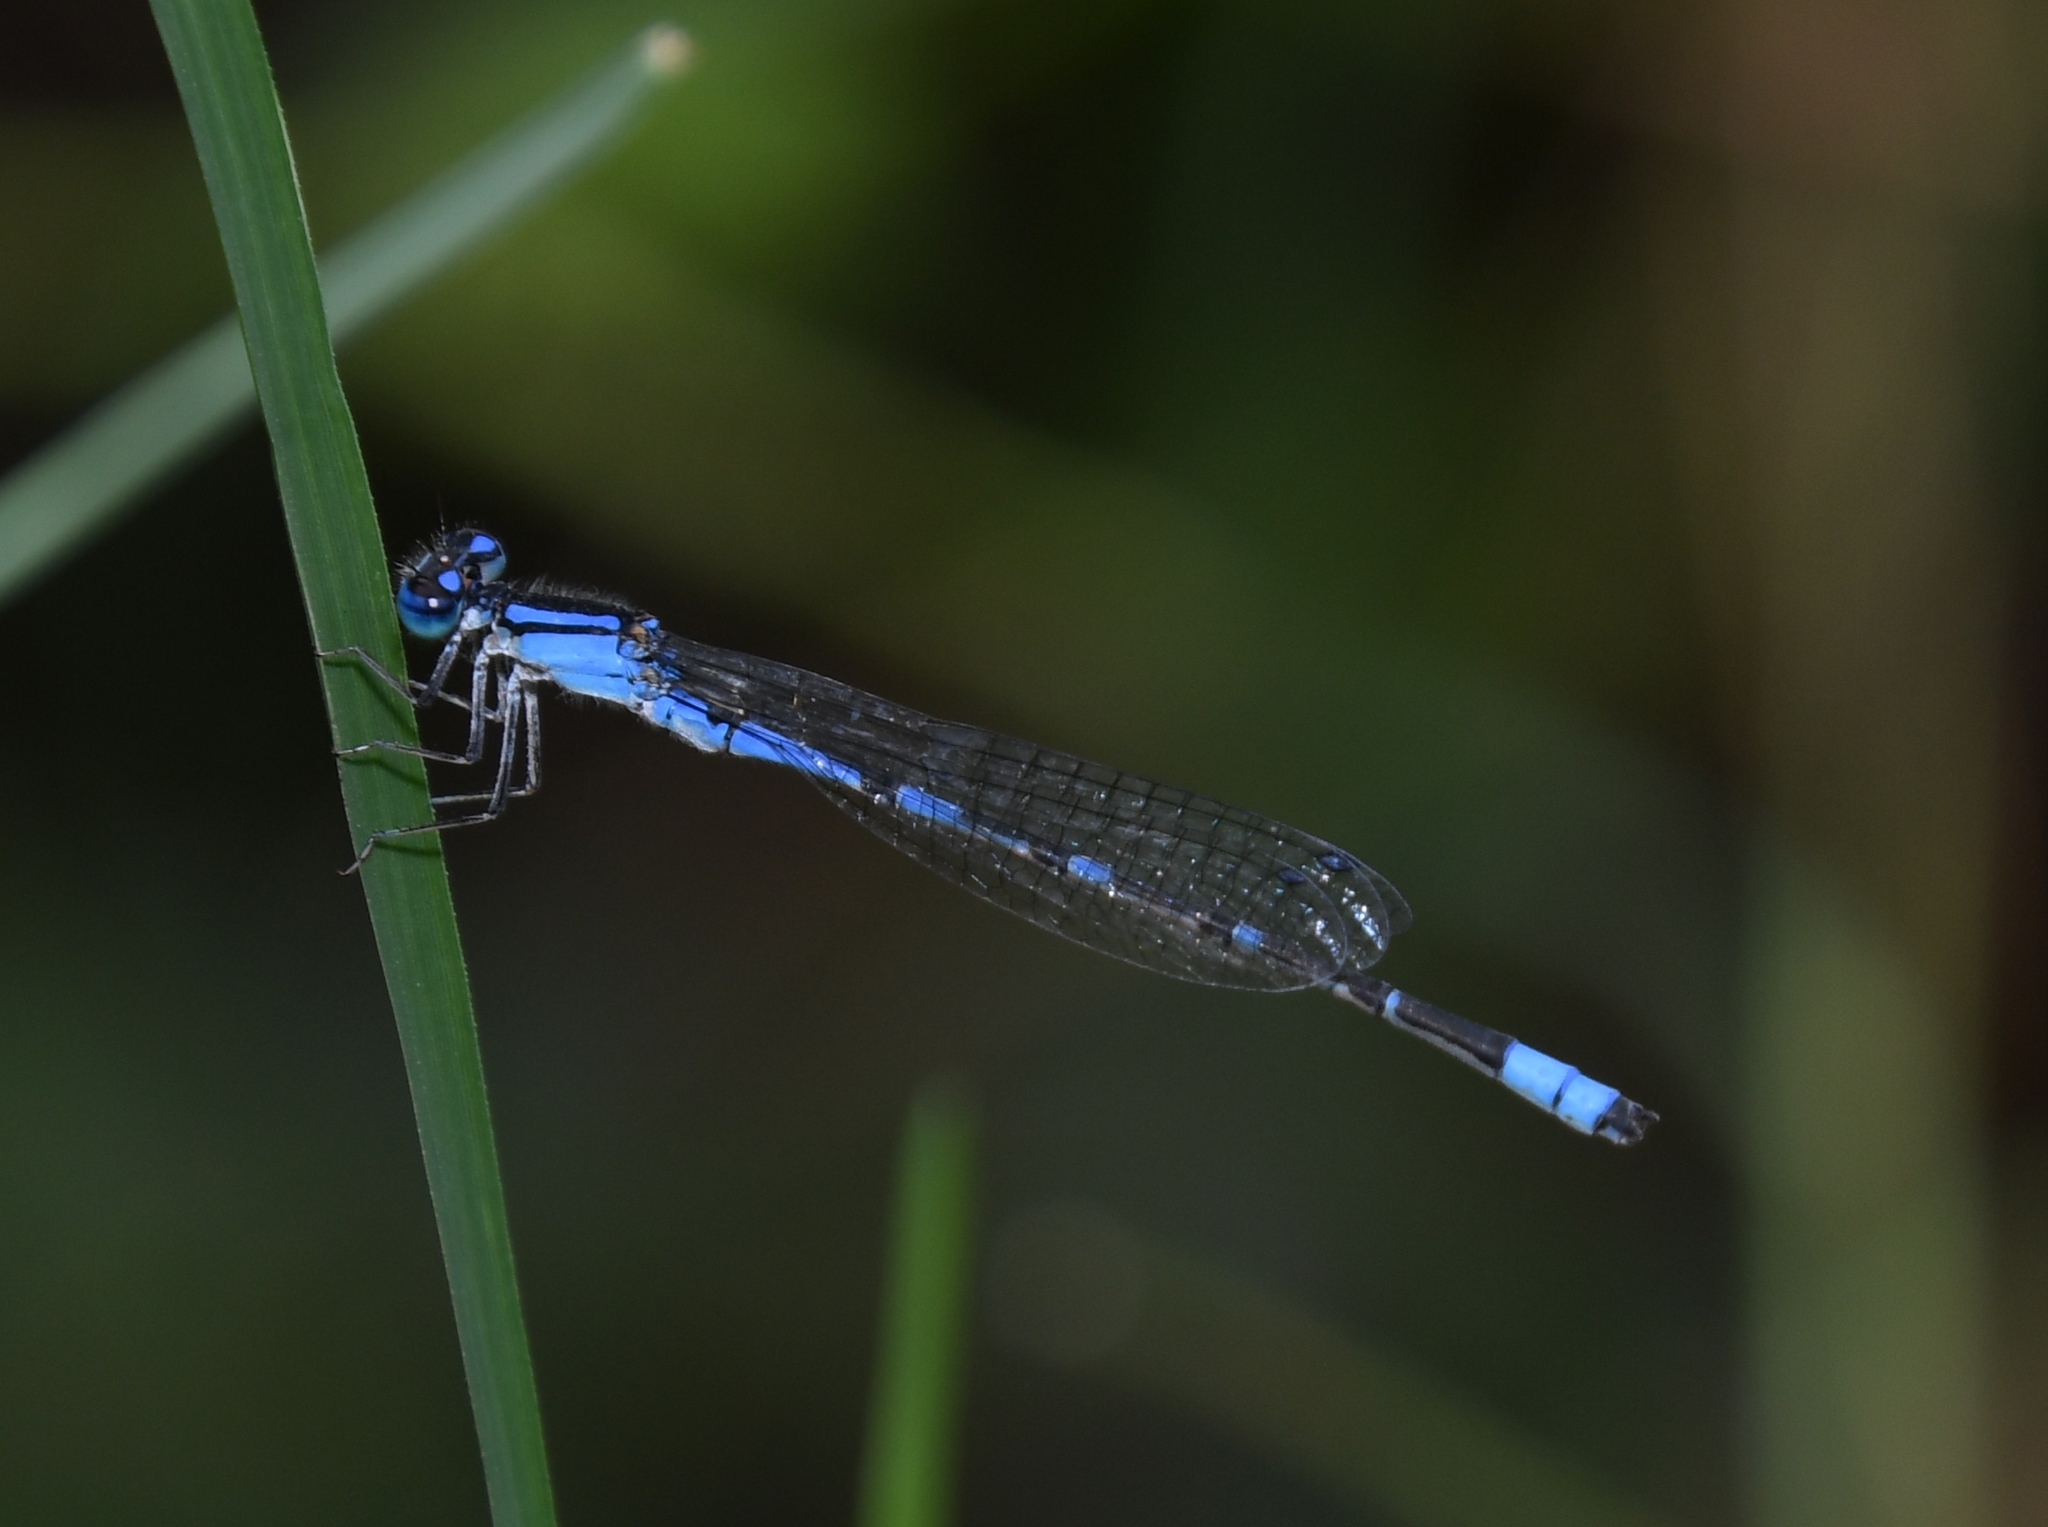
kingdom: Animalia
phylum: Arthropoda
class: Insecta
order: Odonata
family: Coenagrionidae
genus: Enallagma
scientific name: Enallagma praevarum
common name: Arroyo bluet
